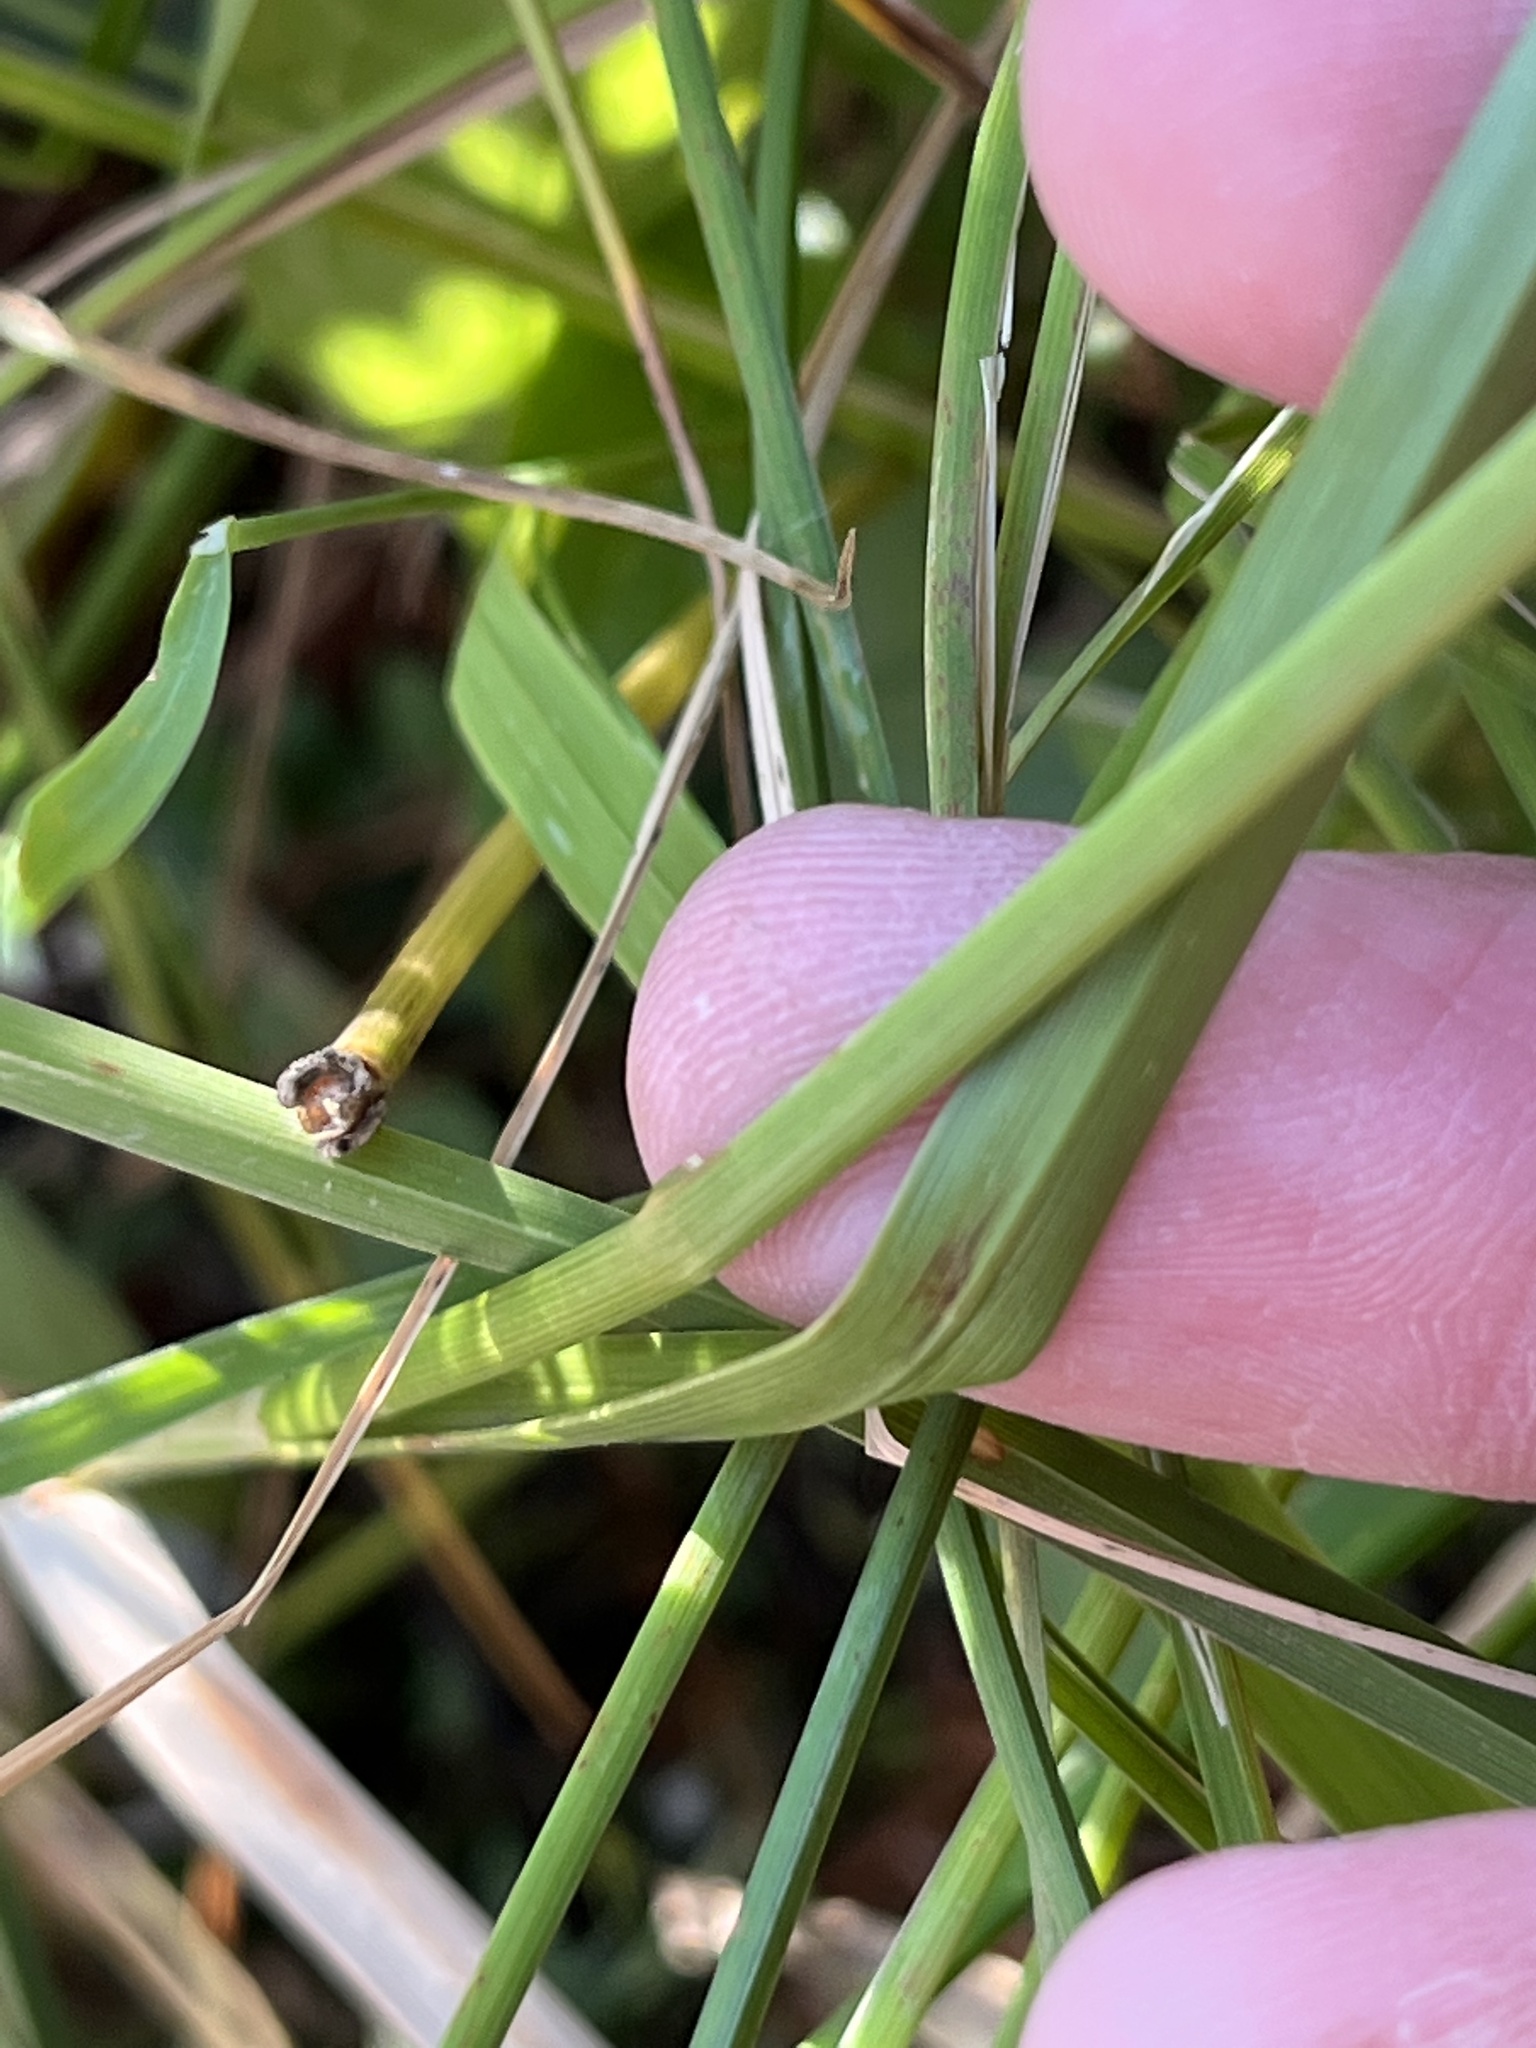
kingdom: Plantae
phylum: Tracheophyta
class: Liliopsida
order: Poales
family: Cyperaceae
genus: Carex
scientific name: Carex utriculata
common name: Beaked sedge
